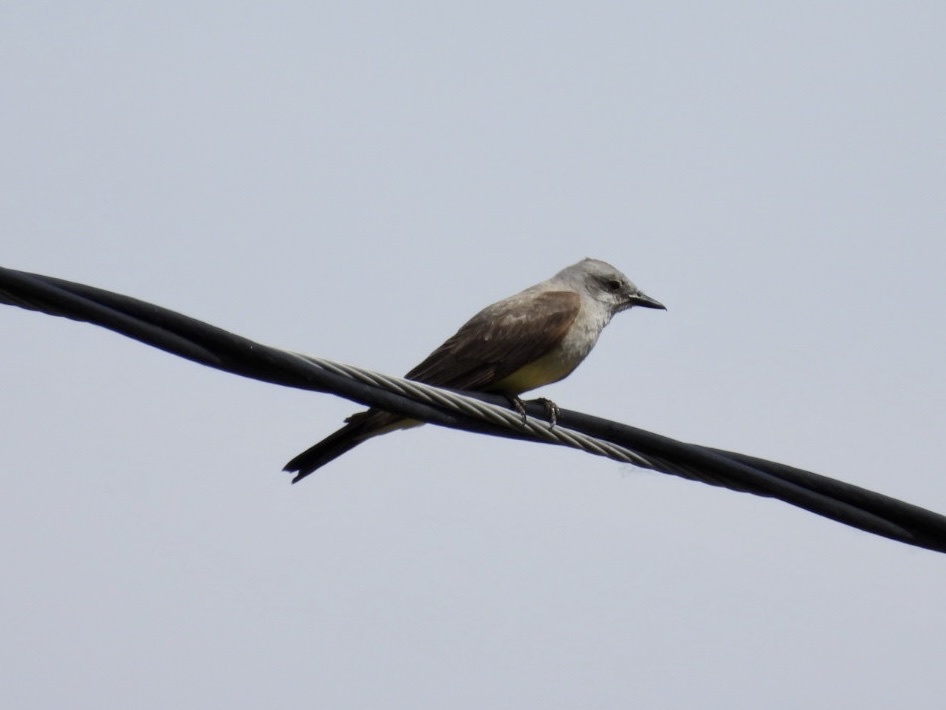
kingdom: Animalia
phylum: Chordata
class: Aves
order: Passeriformes
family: Tyrannidae
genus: Tyrannus
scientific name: Tyrannus verticalis
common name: Western kingbird
